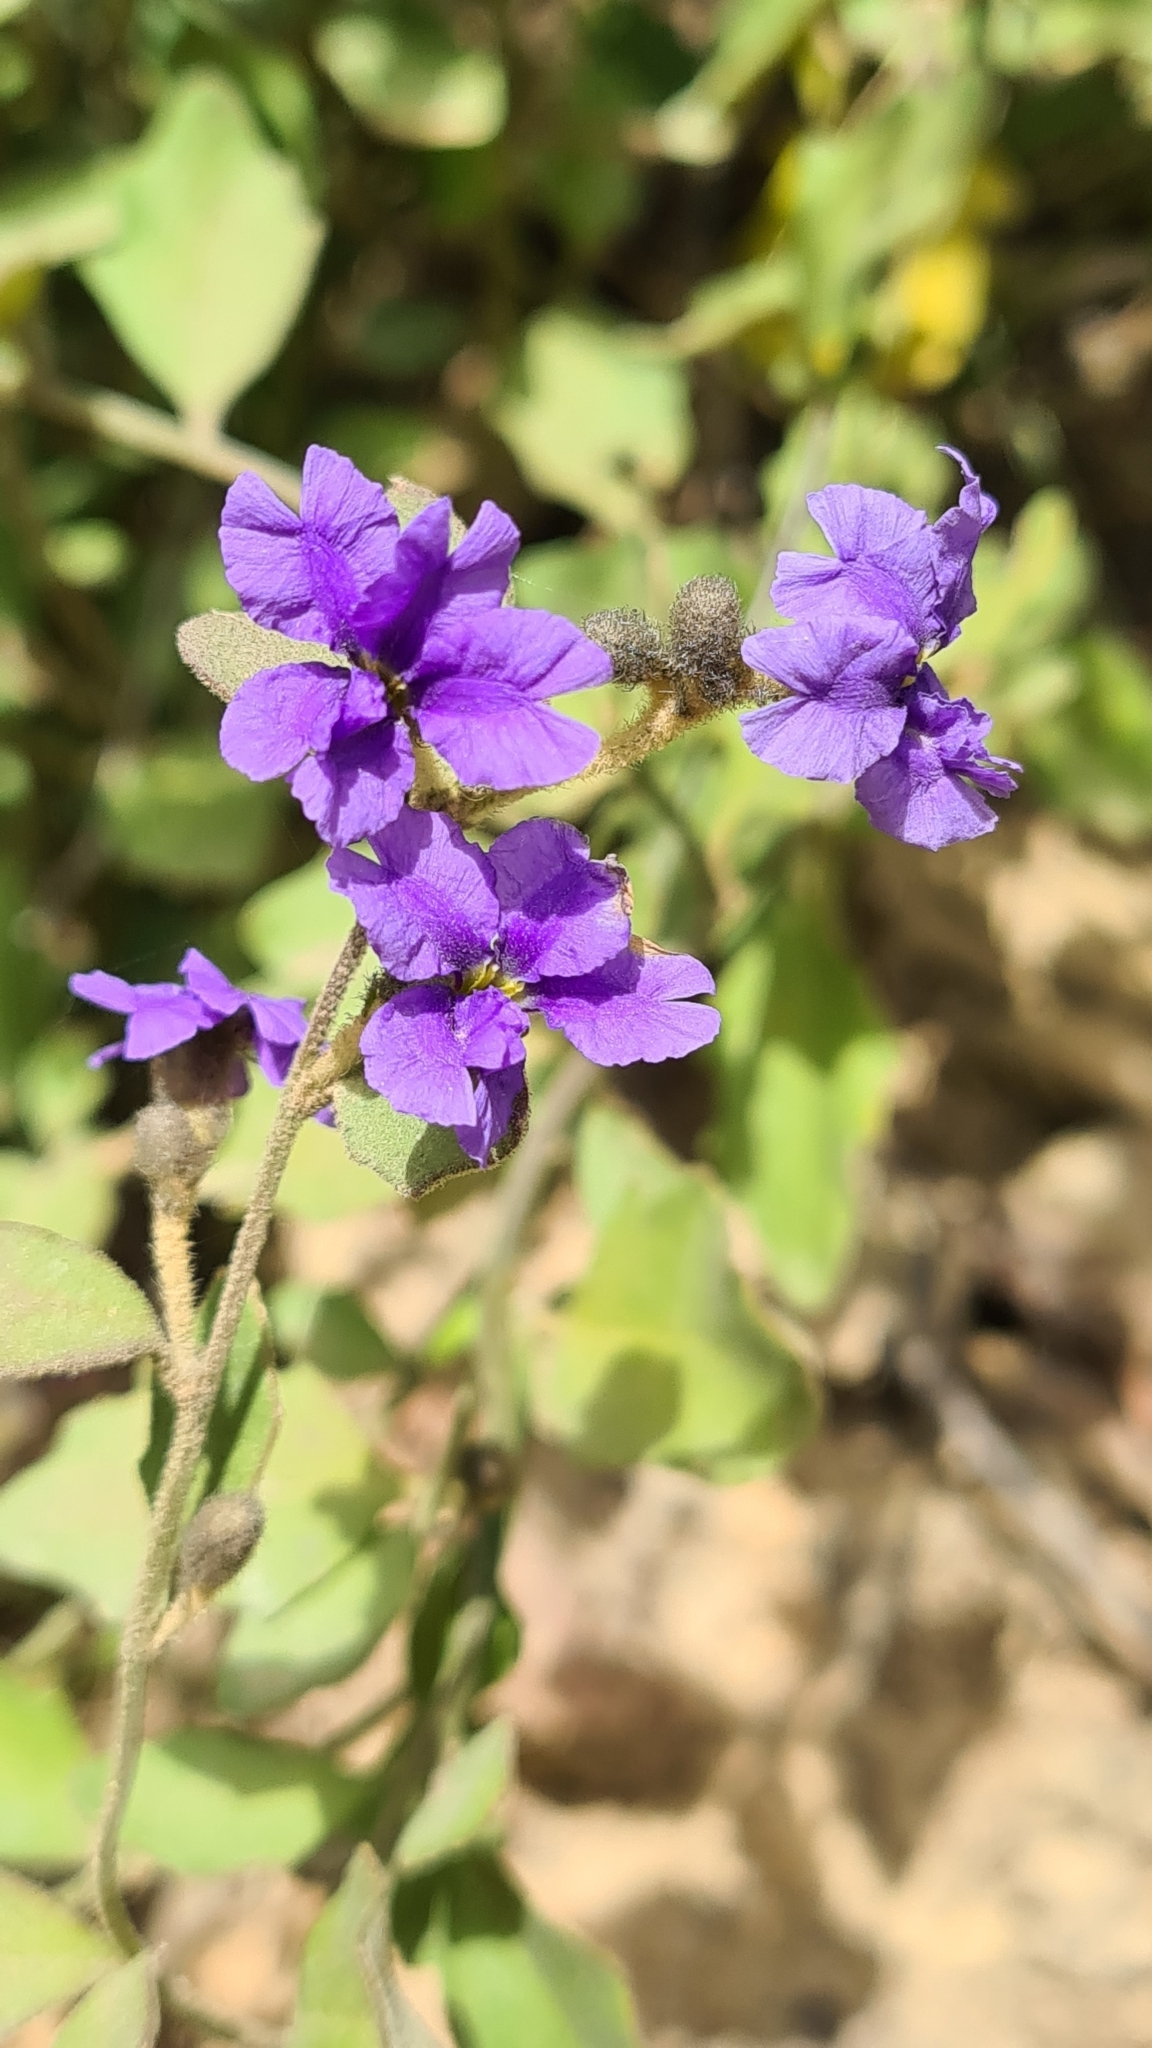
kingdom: Plantae
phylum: Tracheophyta
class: Magnoliopsida
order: Asterales
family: Goodeniaceae
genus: Dampiera
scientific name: Dampiera purpurea
